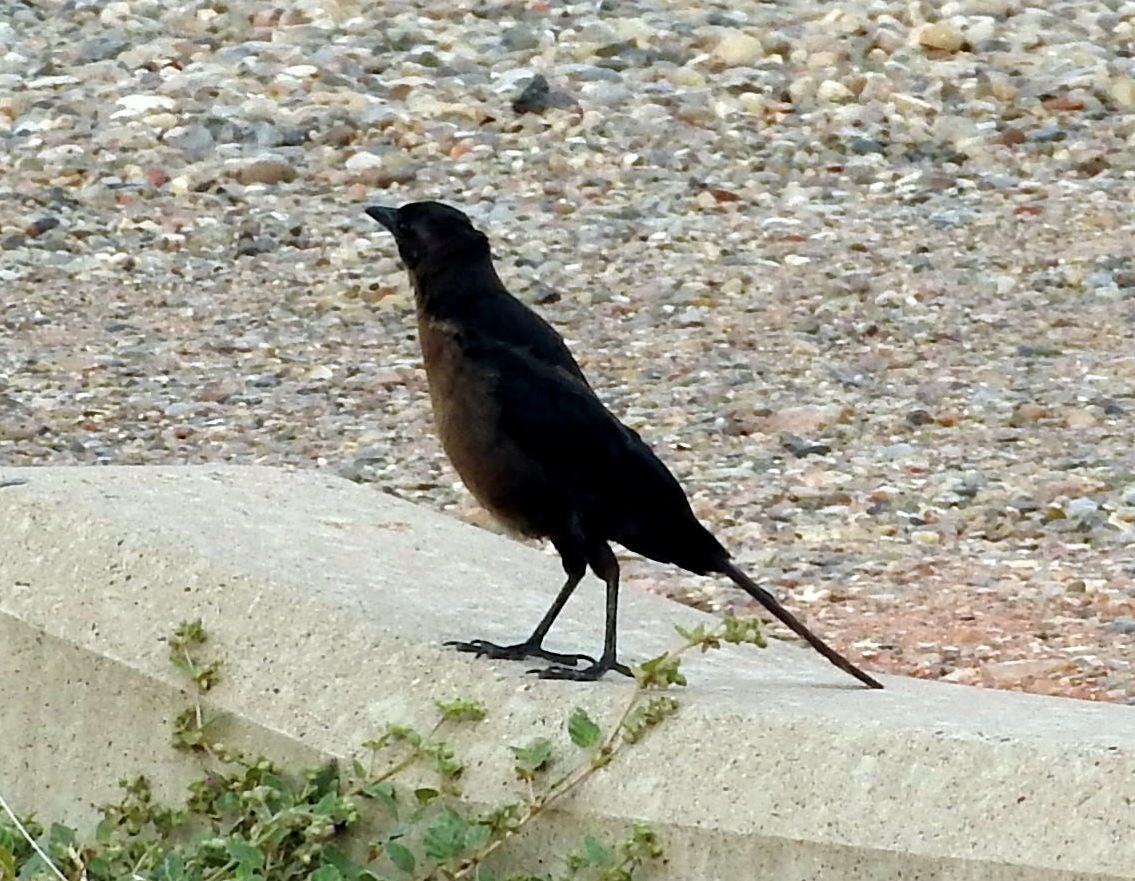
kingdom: Animalia
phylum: Chordata
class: Aves
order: Passeriformes
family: Icteridae
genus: Quiscalus
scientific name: Quiscalus mexicanus
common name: Great-tailed grackle
